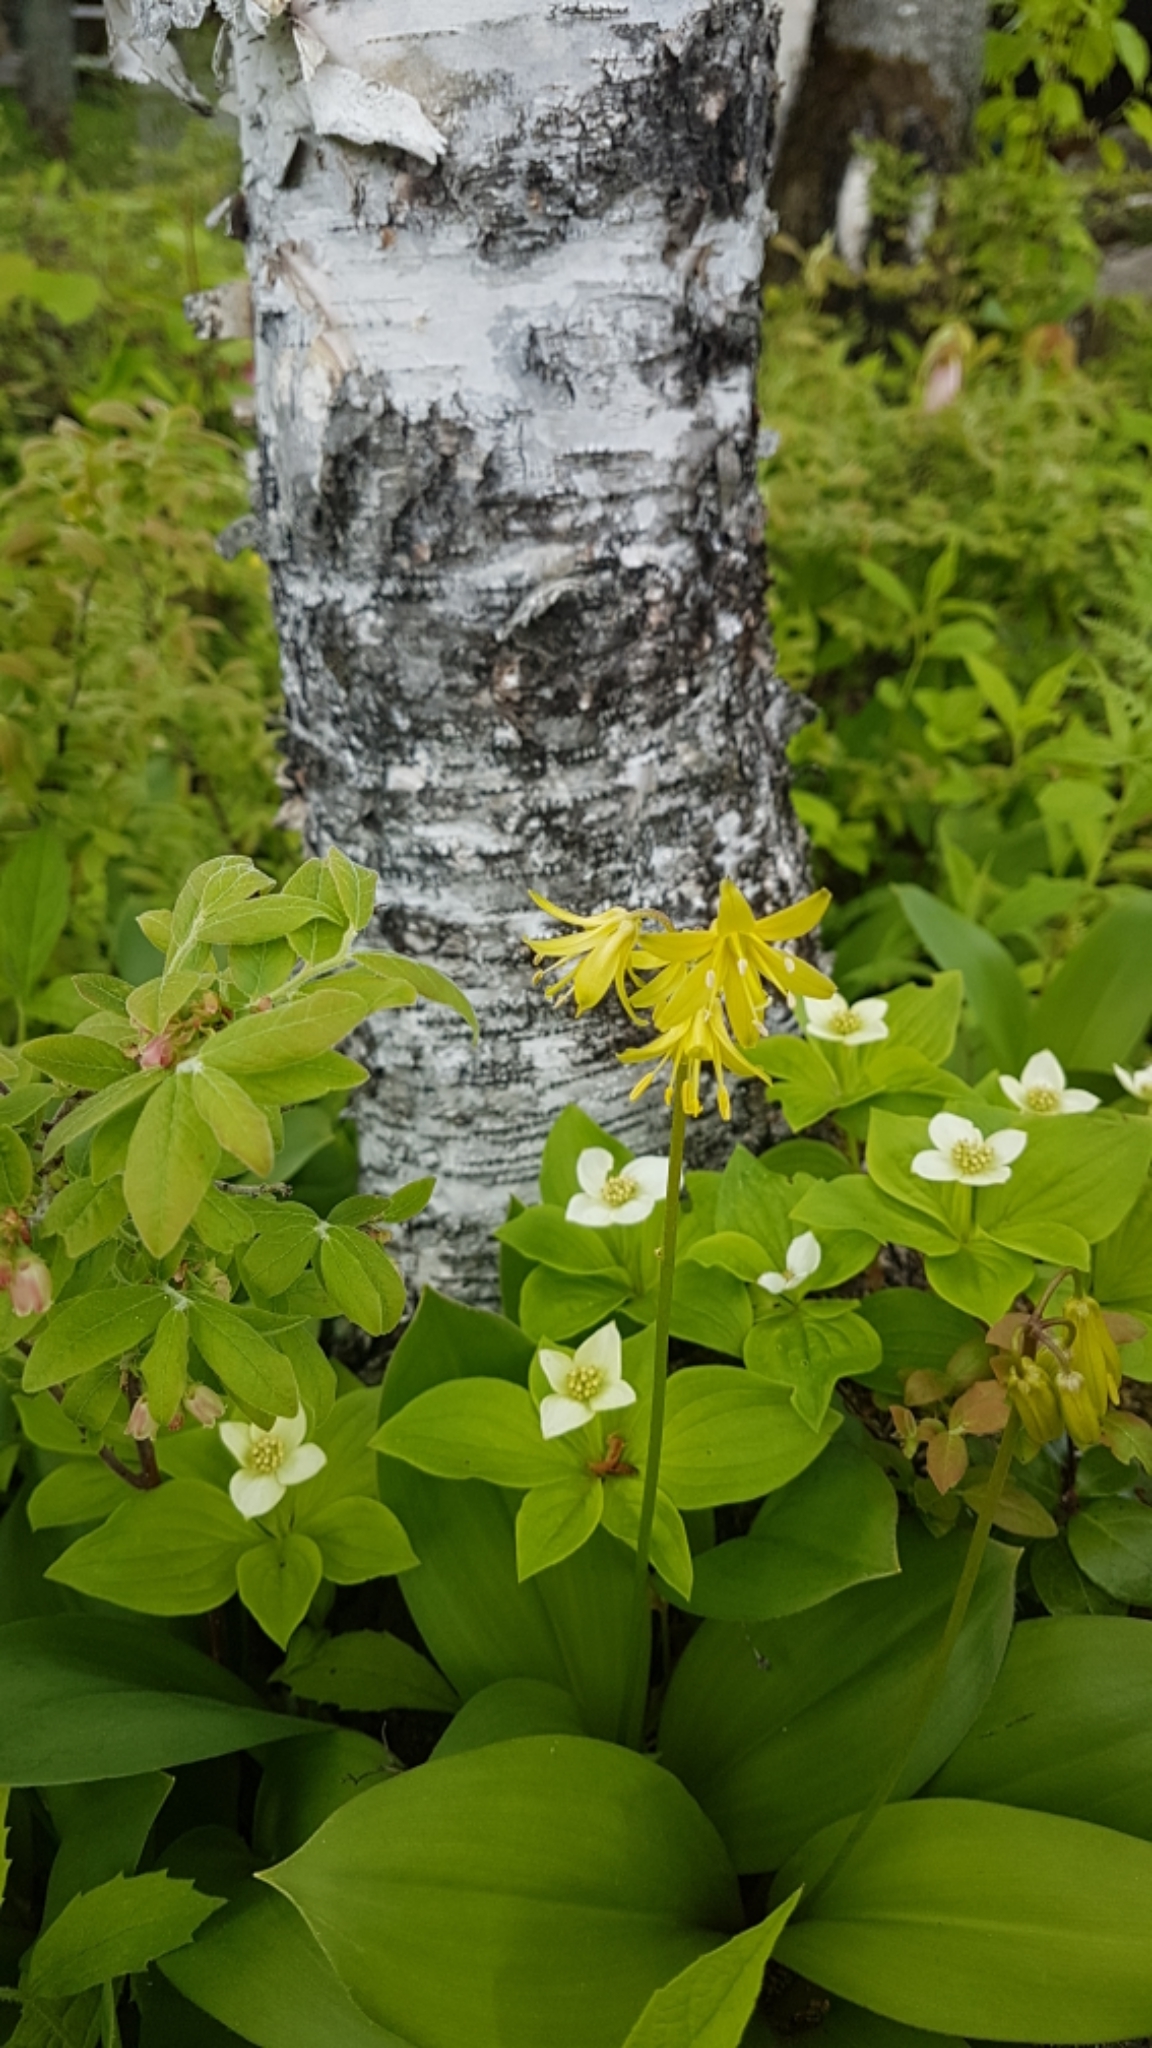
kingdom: Plantae
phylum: Tracheophyta
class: Liliopsida
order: Liliales
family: Liliaceae
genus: Clintonia
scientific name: Clintonia borealis
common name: Yellow clintonia
